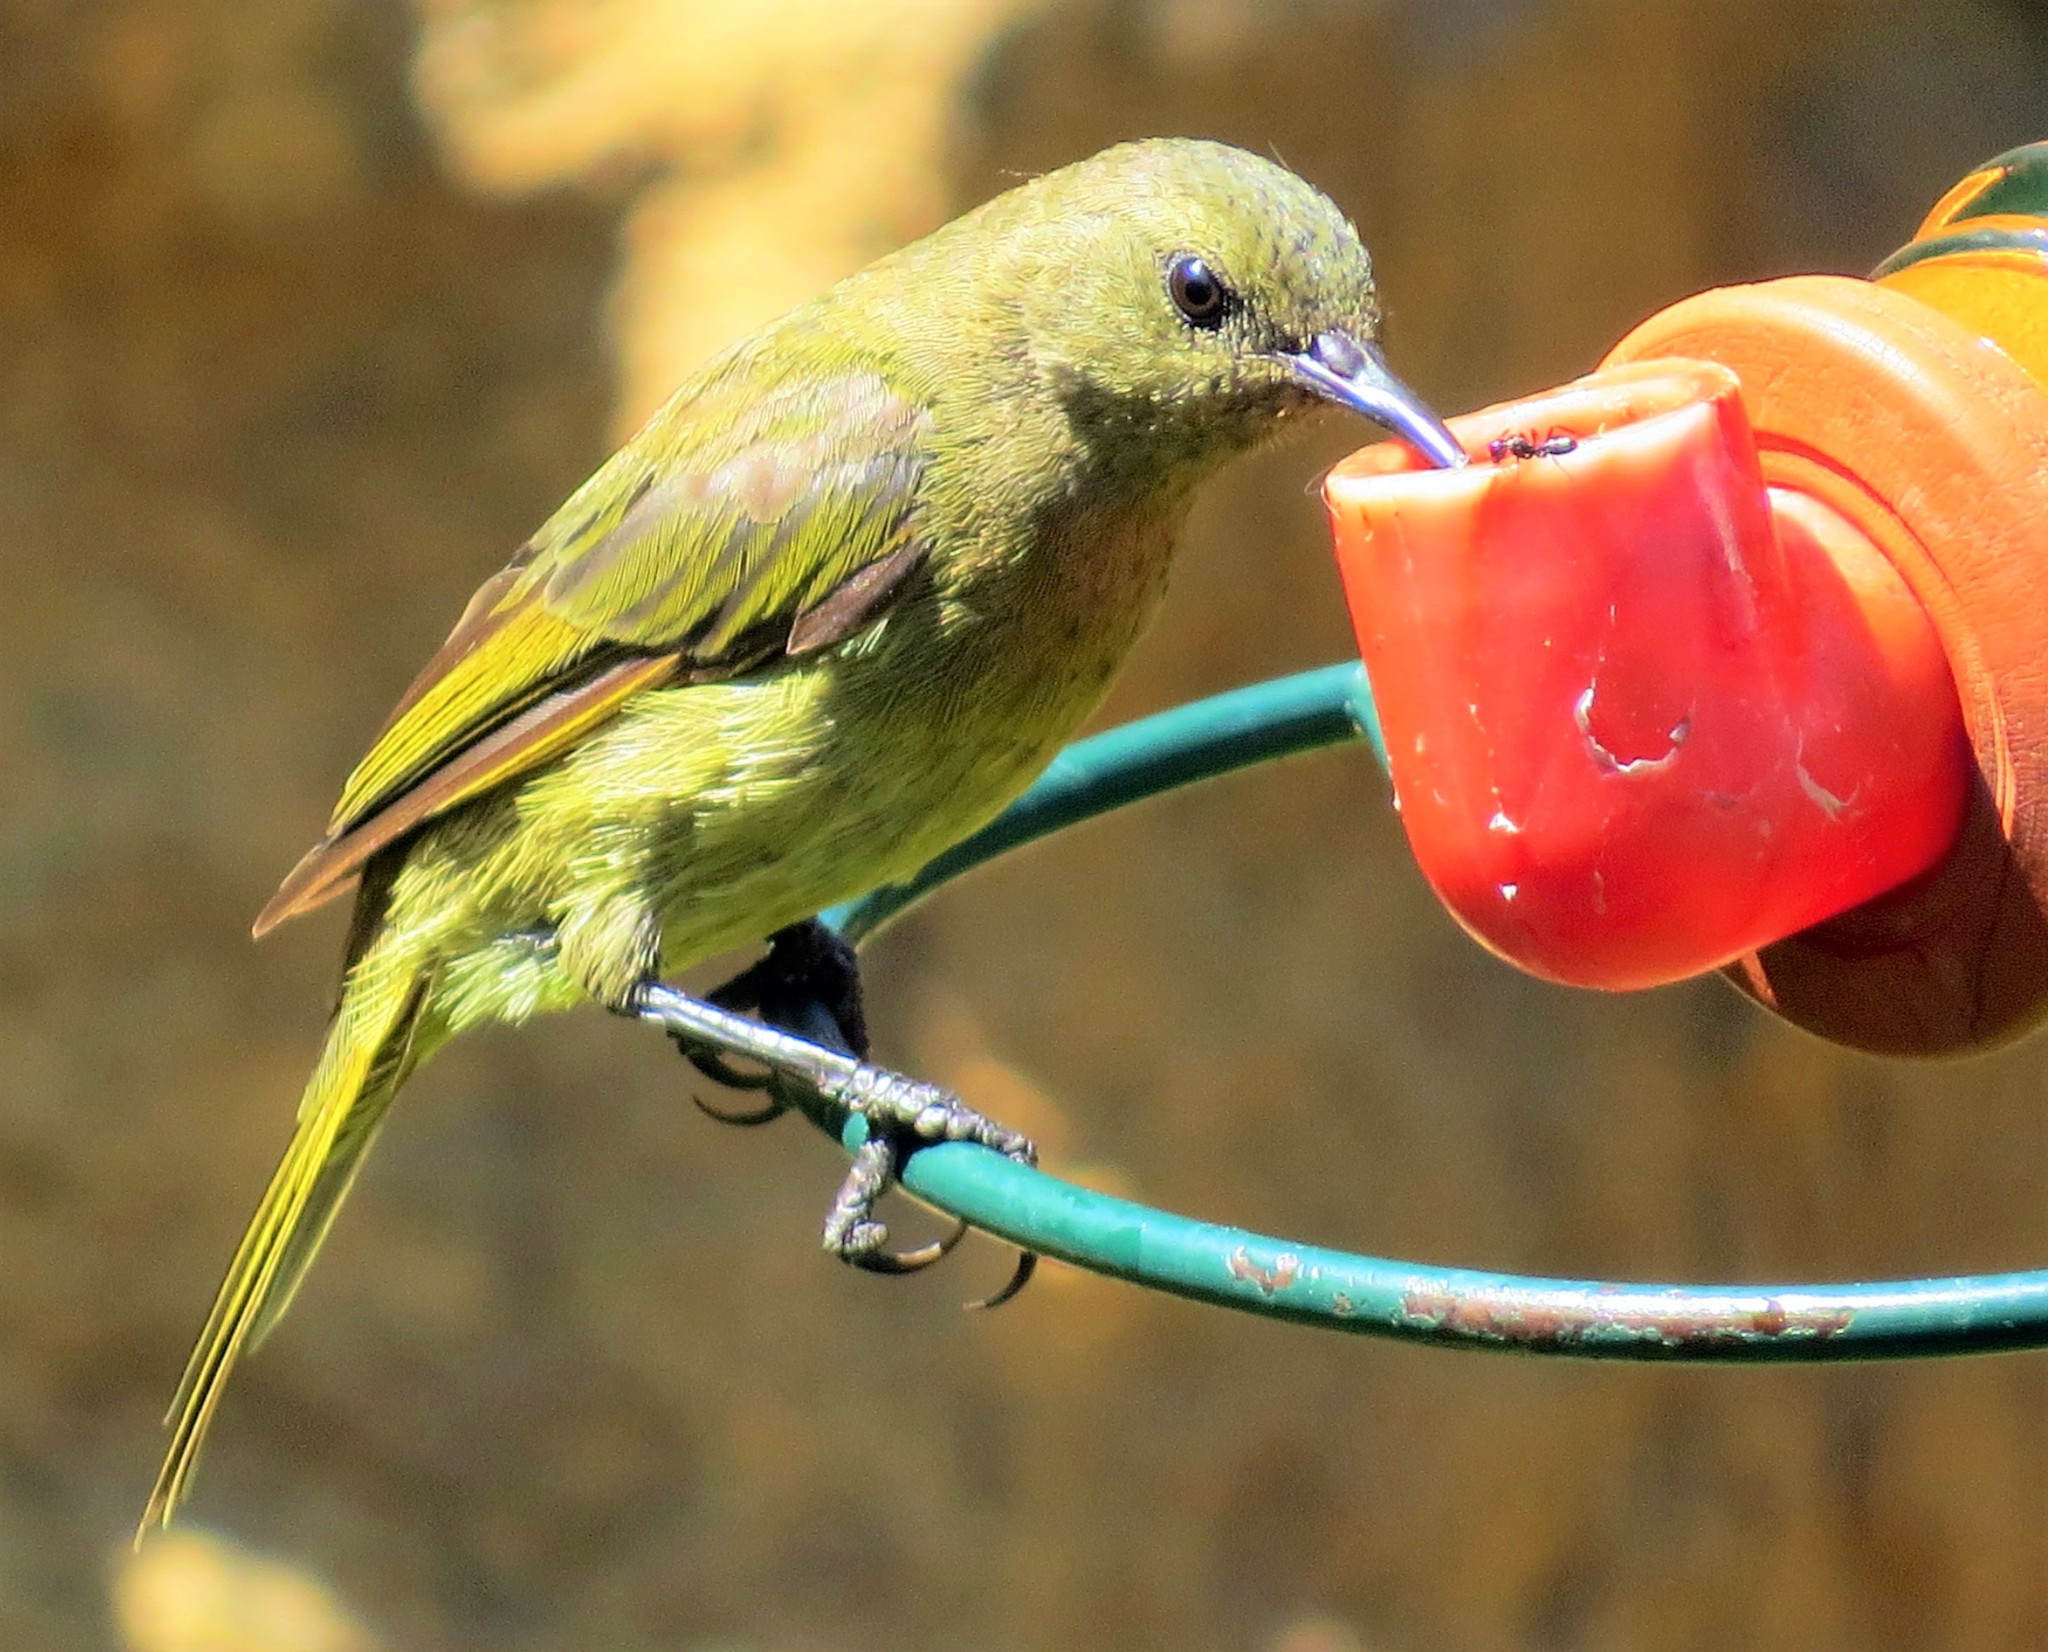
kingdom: Animalia
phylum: Chordata
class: Aves
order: Passeriformes
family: Nectariniidae
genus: Anthobaphes
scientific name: Anthobaphes violacea
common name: Orange-breasted sunbird
